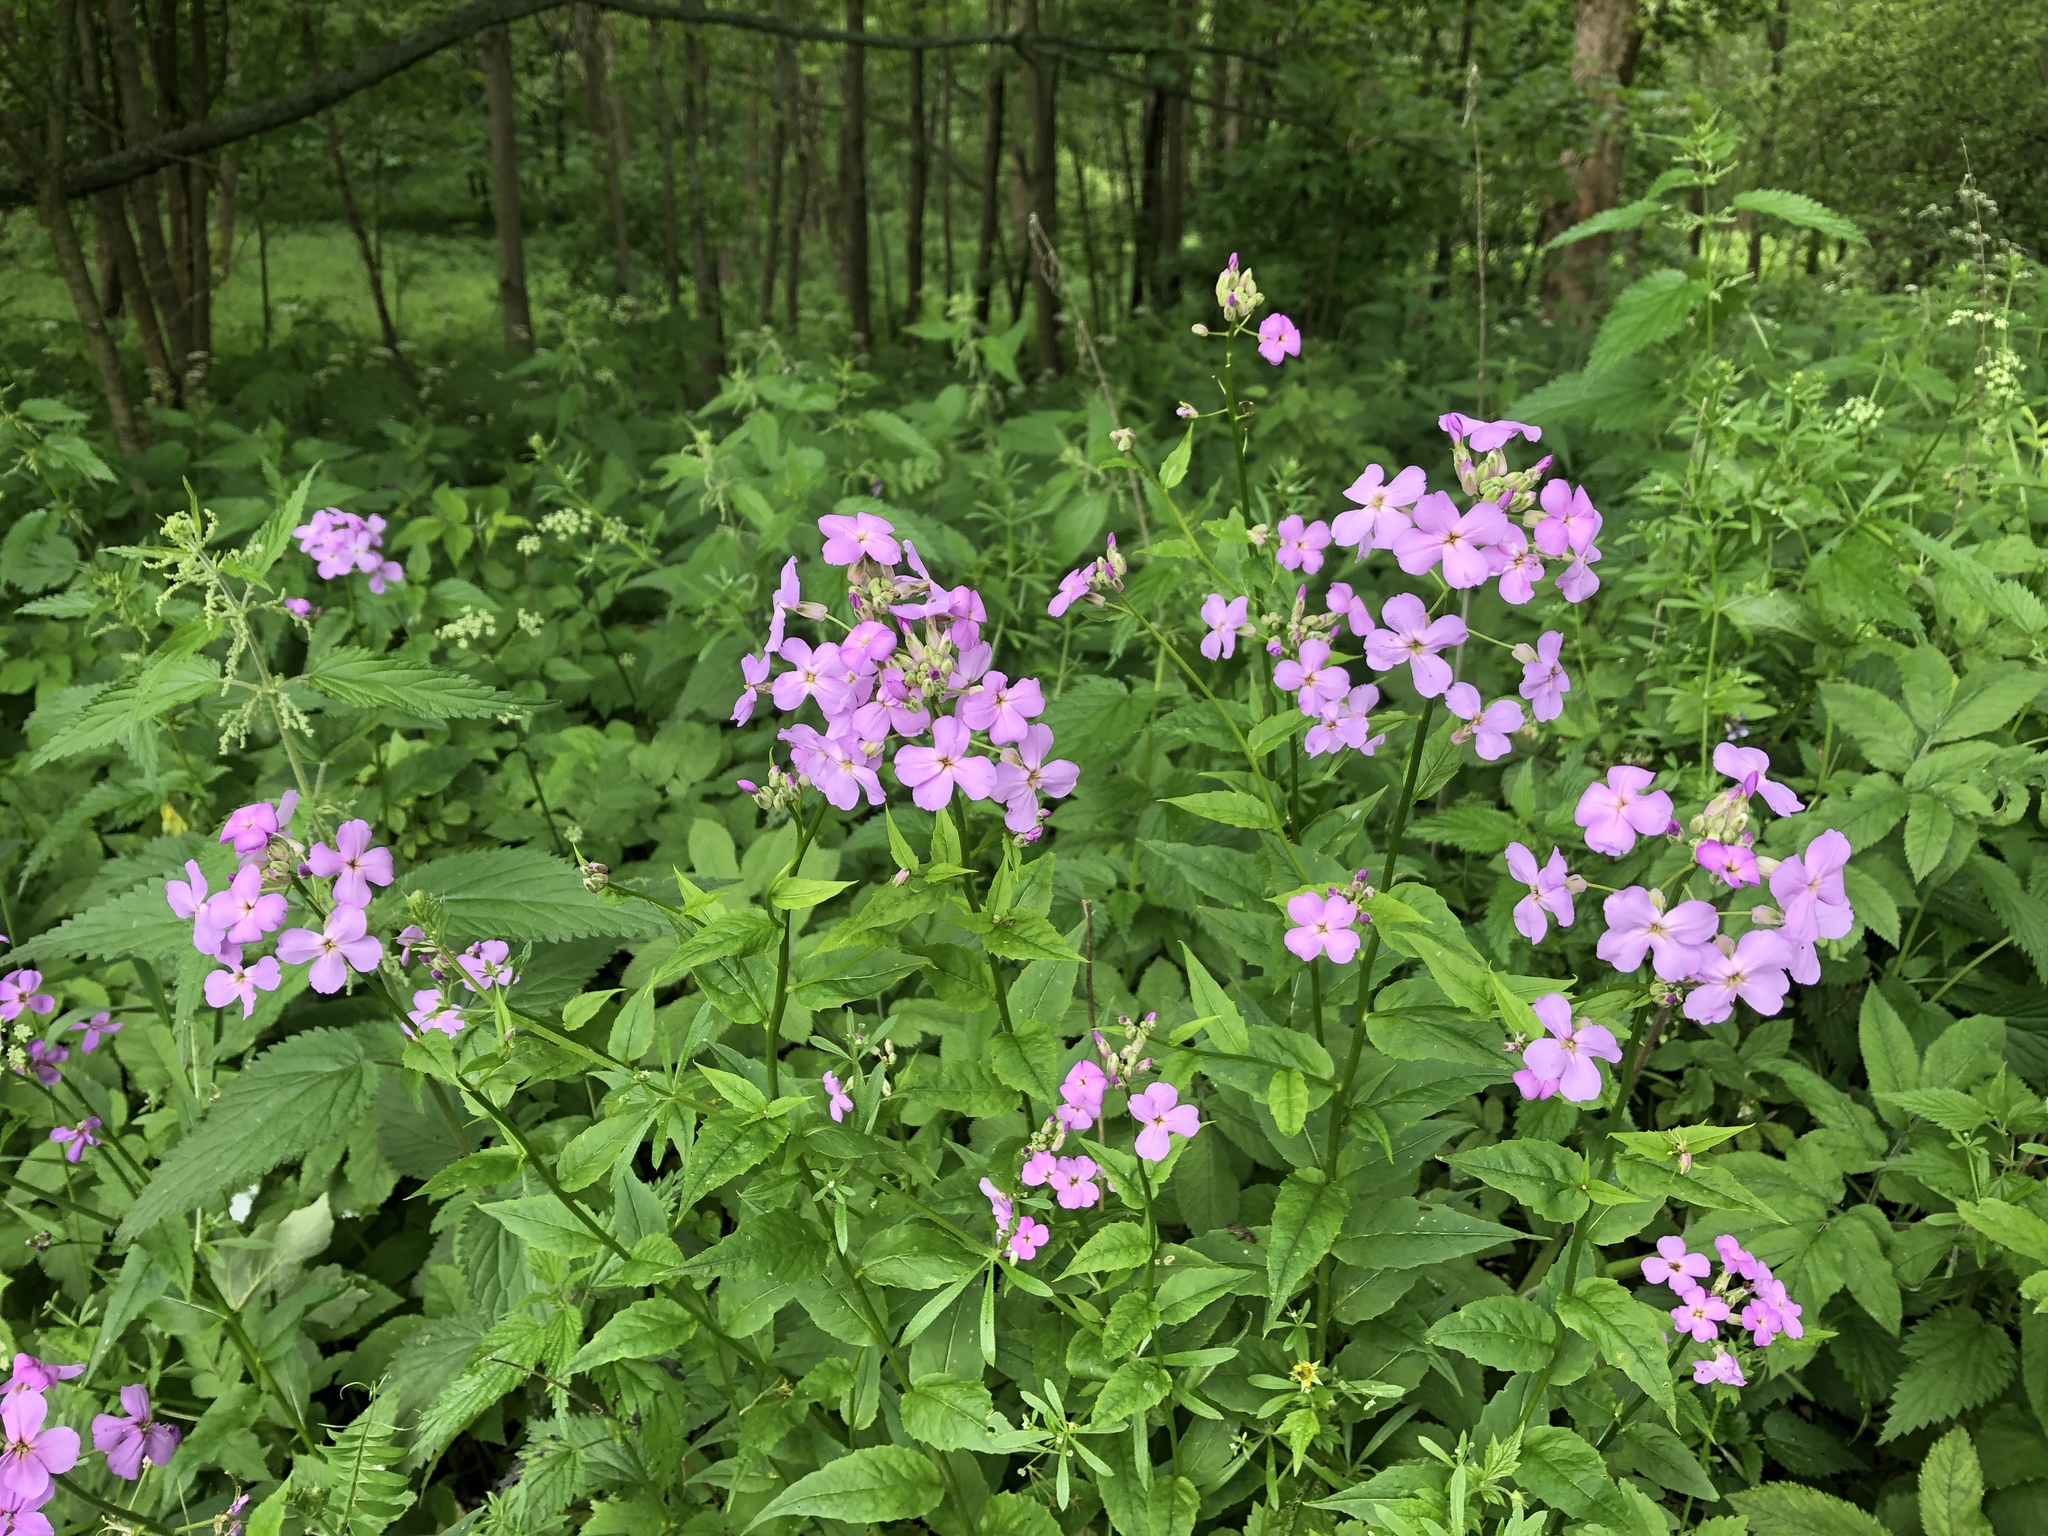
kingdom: Plantae
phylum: Tracheophyta
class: Magnoliopsida
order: Brassicales
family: Brassicaceae
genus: Hesperis
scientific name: Hesperis matronalis
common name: Dame's-violet
